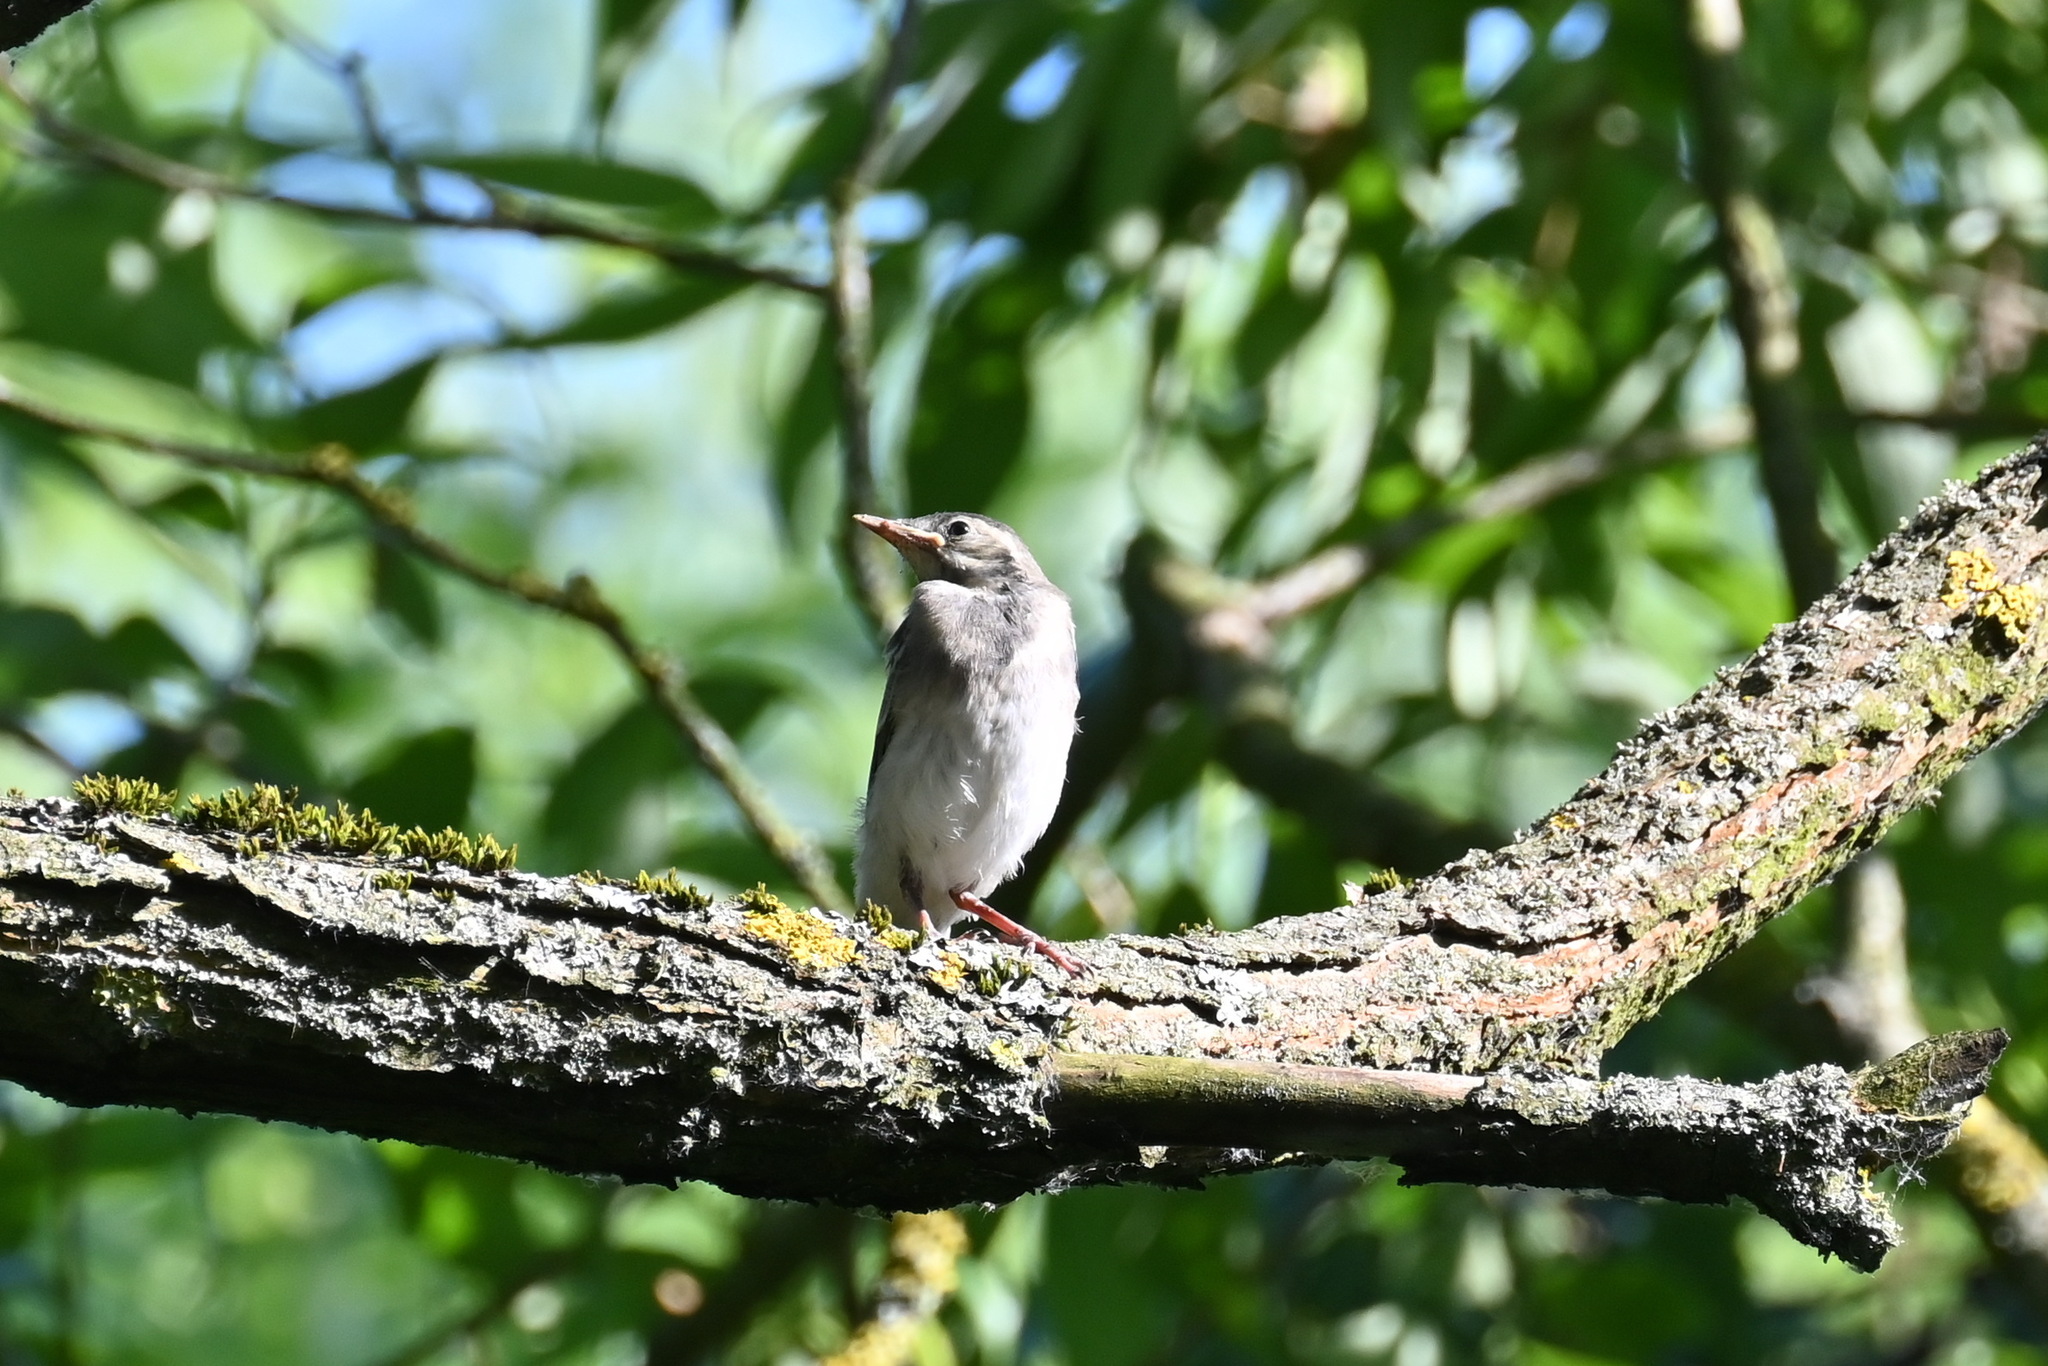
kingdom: Animalia
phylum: Chordata
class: Aves
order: Passeriformes
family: Motacillidae
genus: Motacilla
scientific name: Motacilla alba
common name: White wagtail
